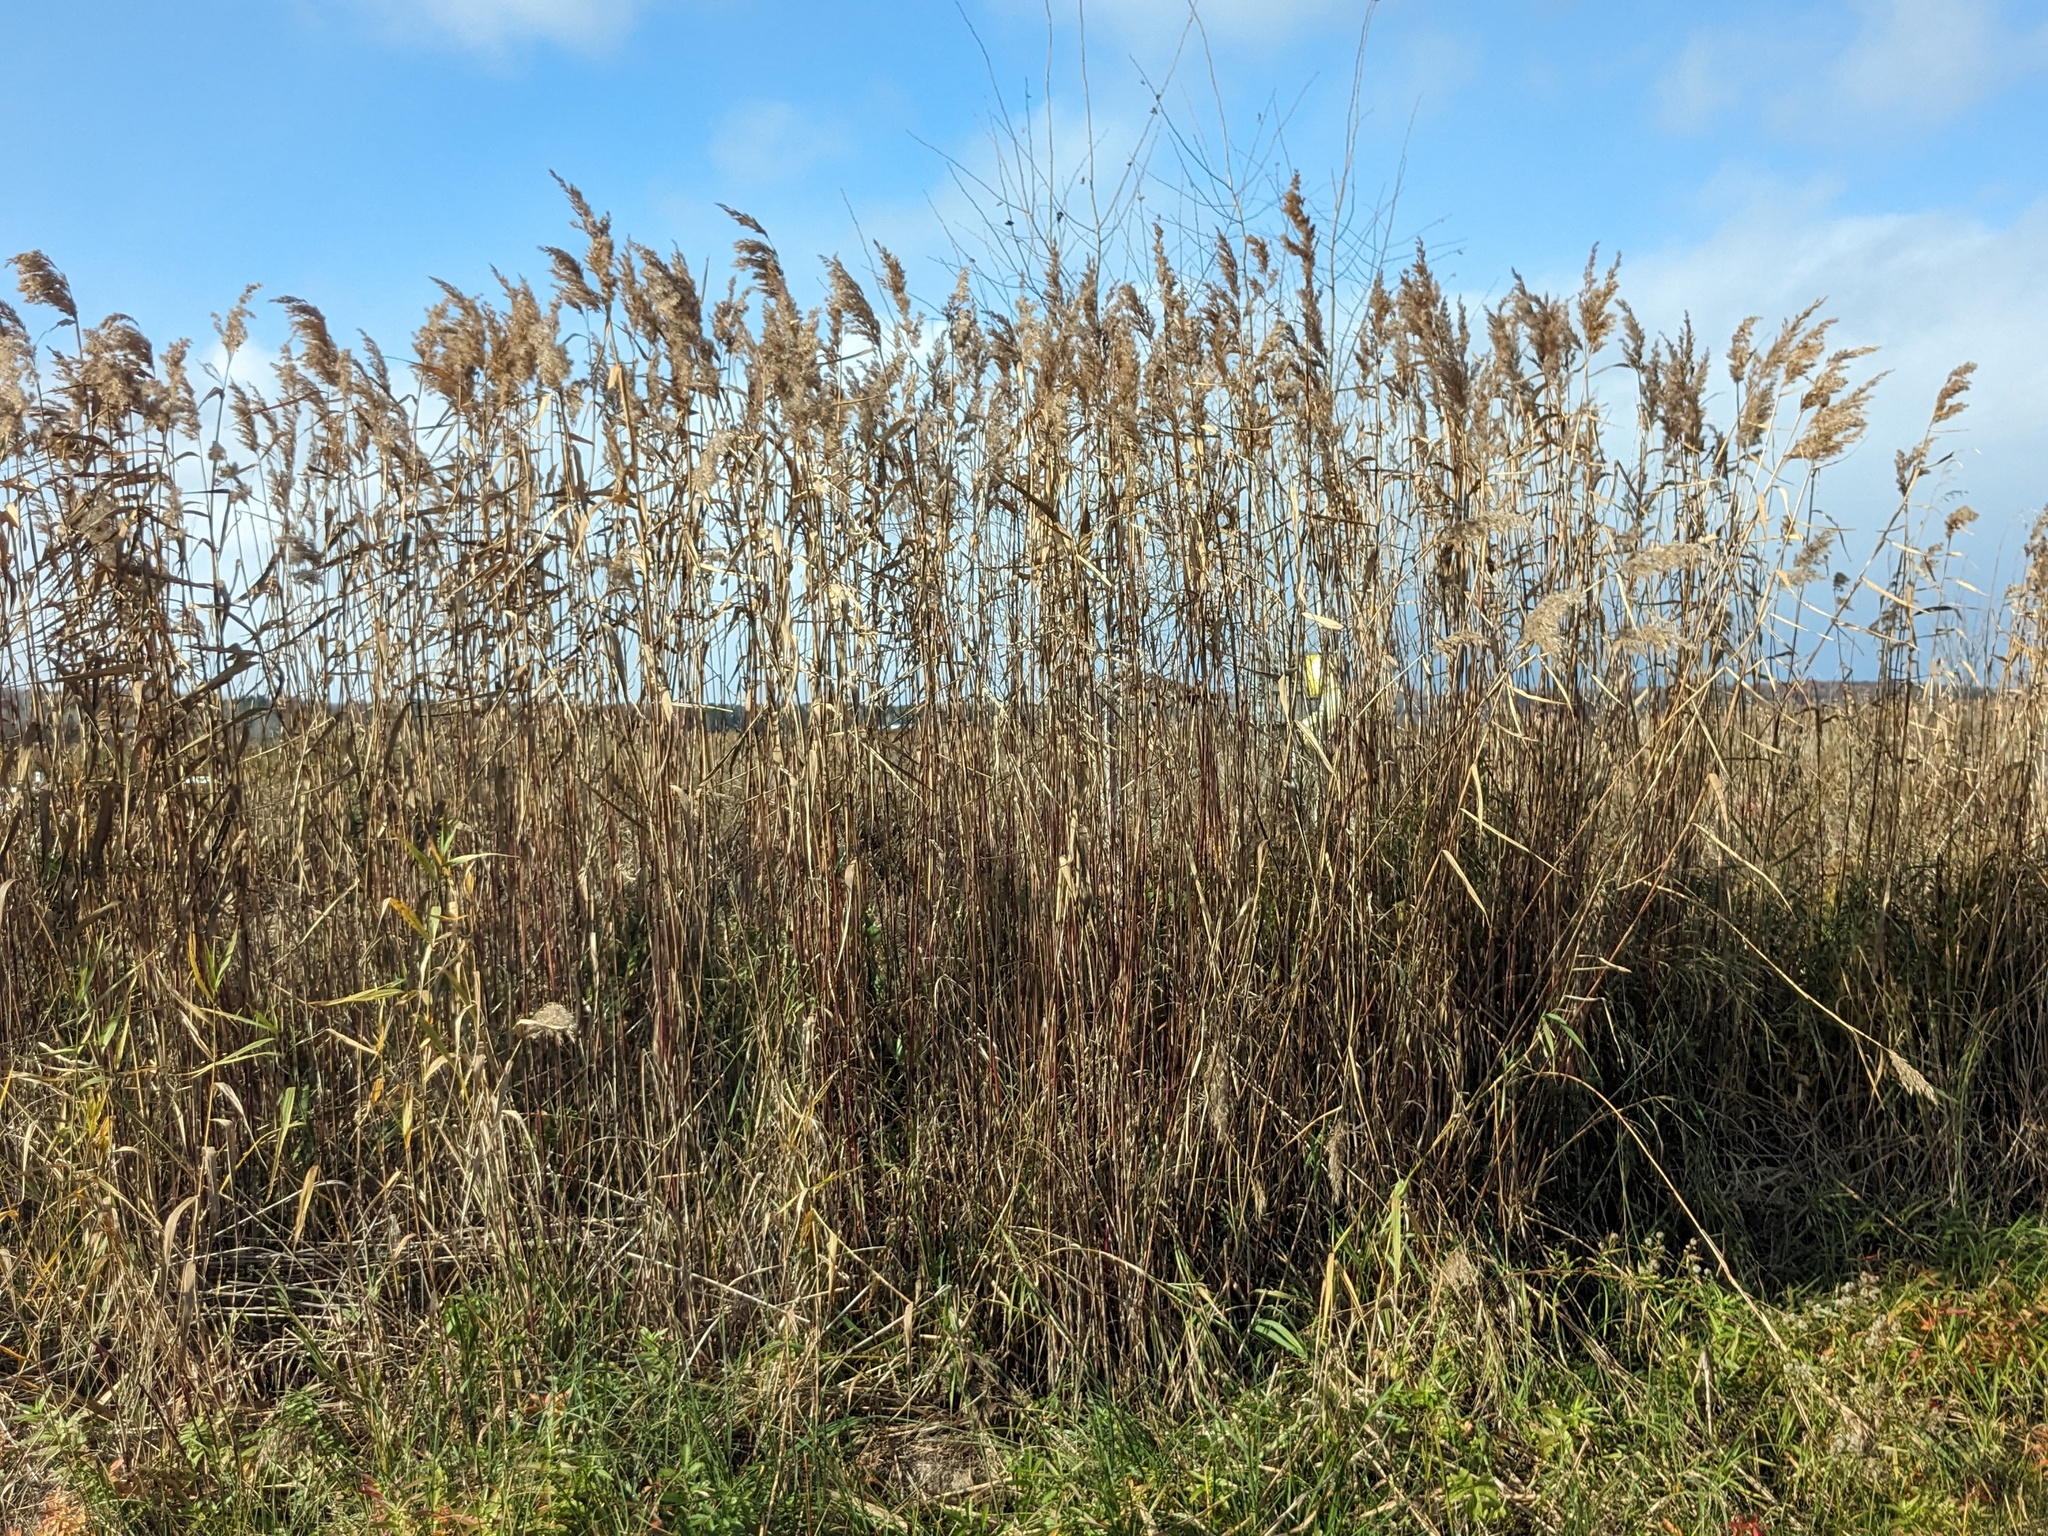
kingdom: Plantae
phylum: Tracheophyta
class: Liliopsida
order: Poales
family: Poaceae
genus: Phragmites
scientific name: Phragmites australis
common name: Common reed
